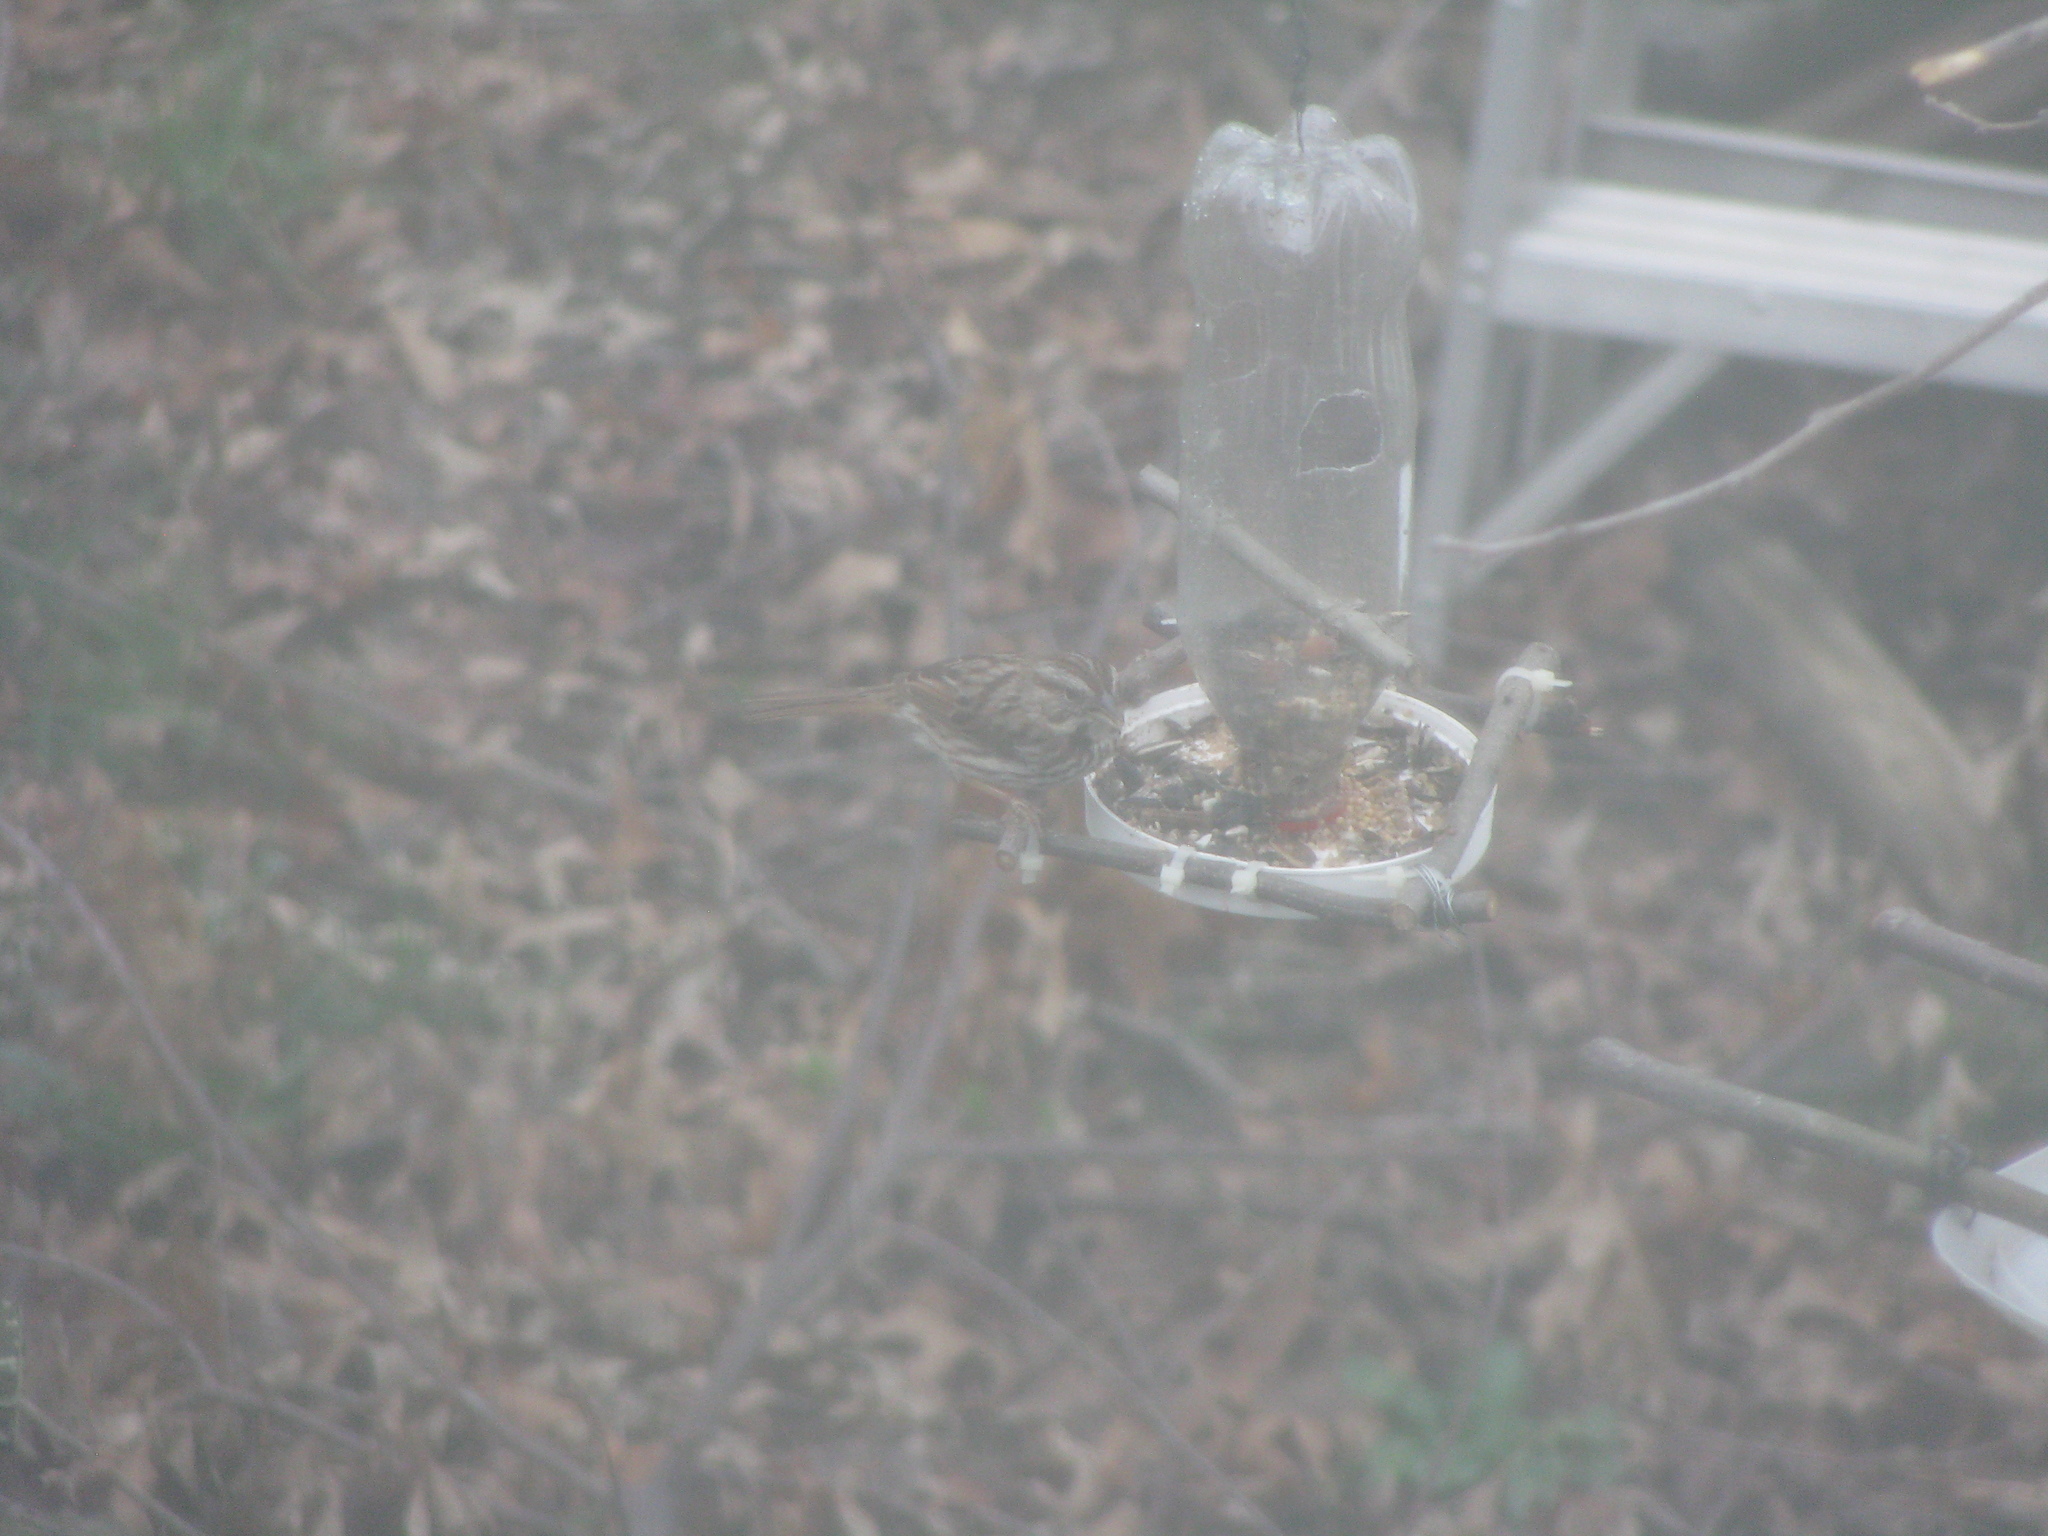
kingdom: Animalia
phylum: Chordata
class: Aves
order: Passeriformes
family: Passerellidae
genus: Melospiza
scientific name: Melospiza melodia
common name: Song sparrow
